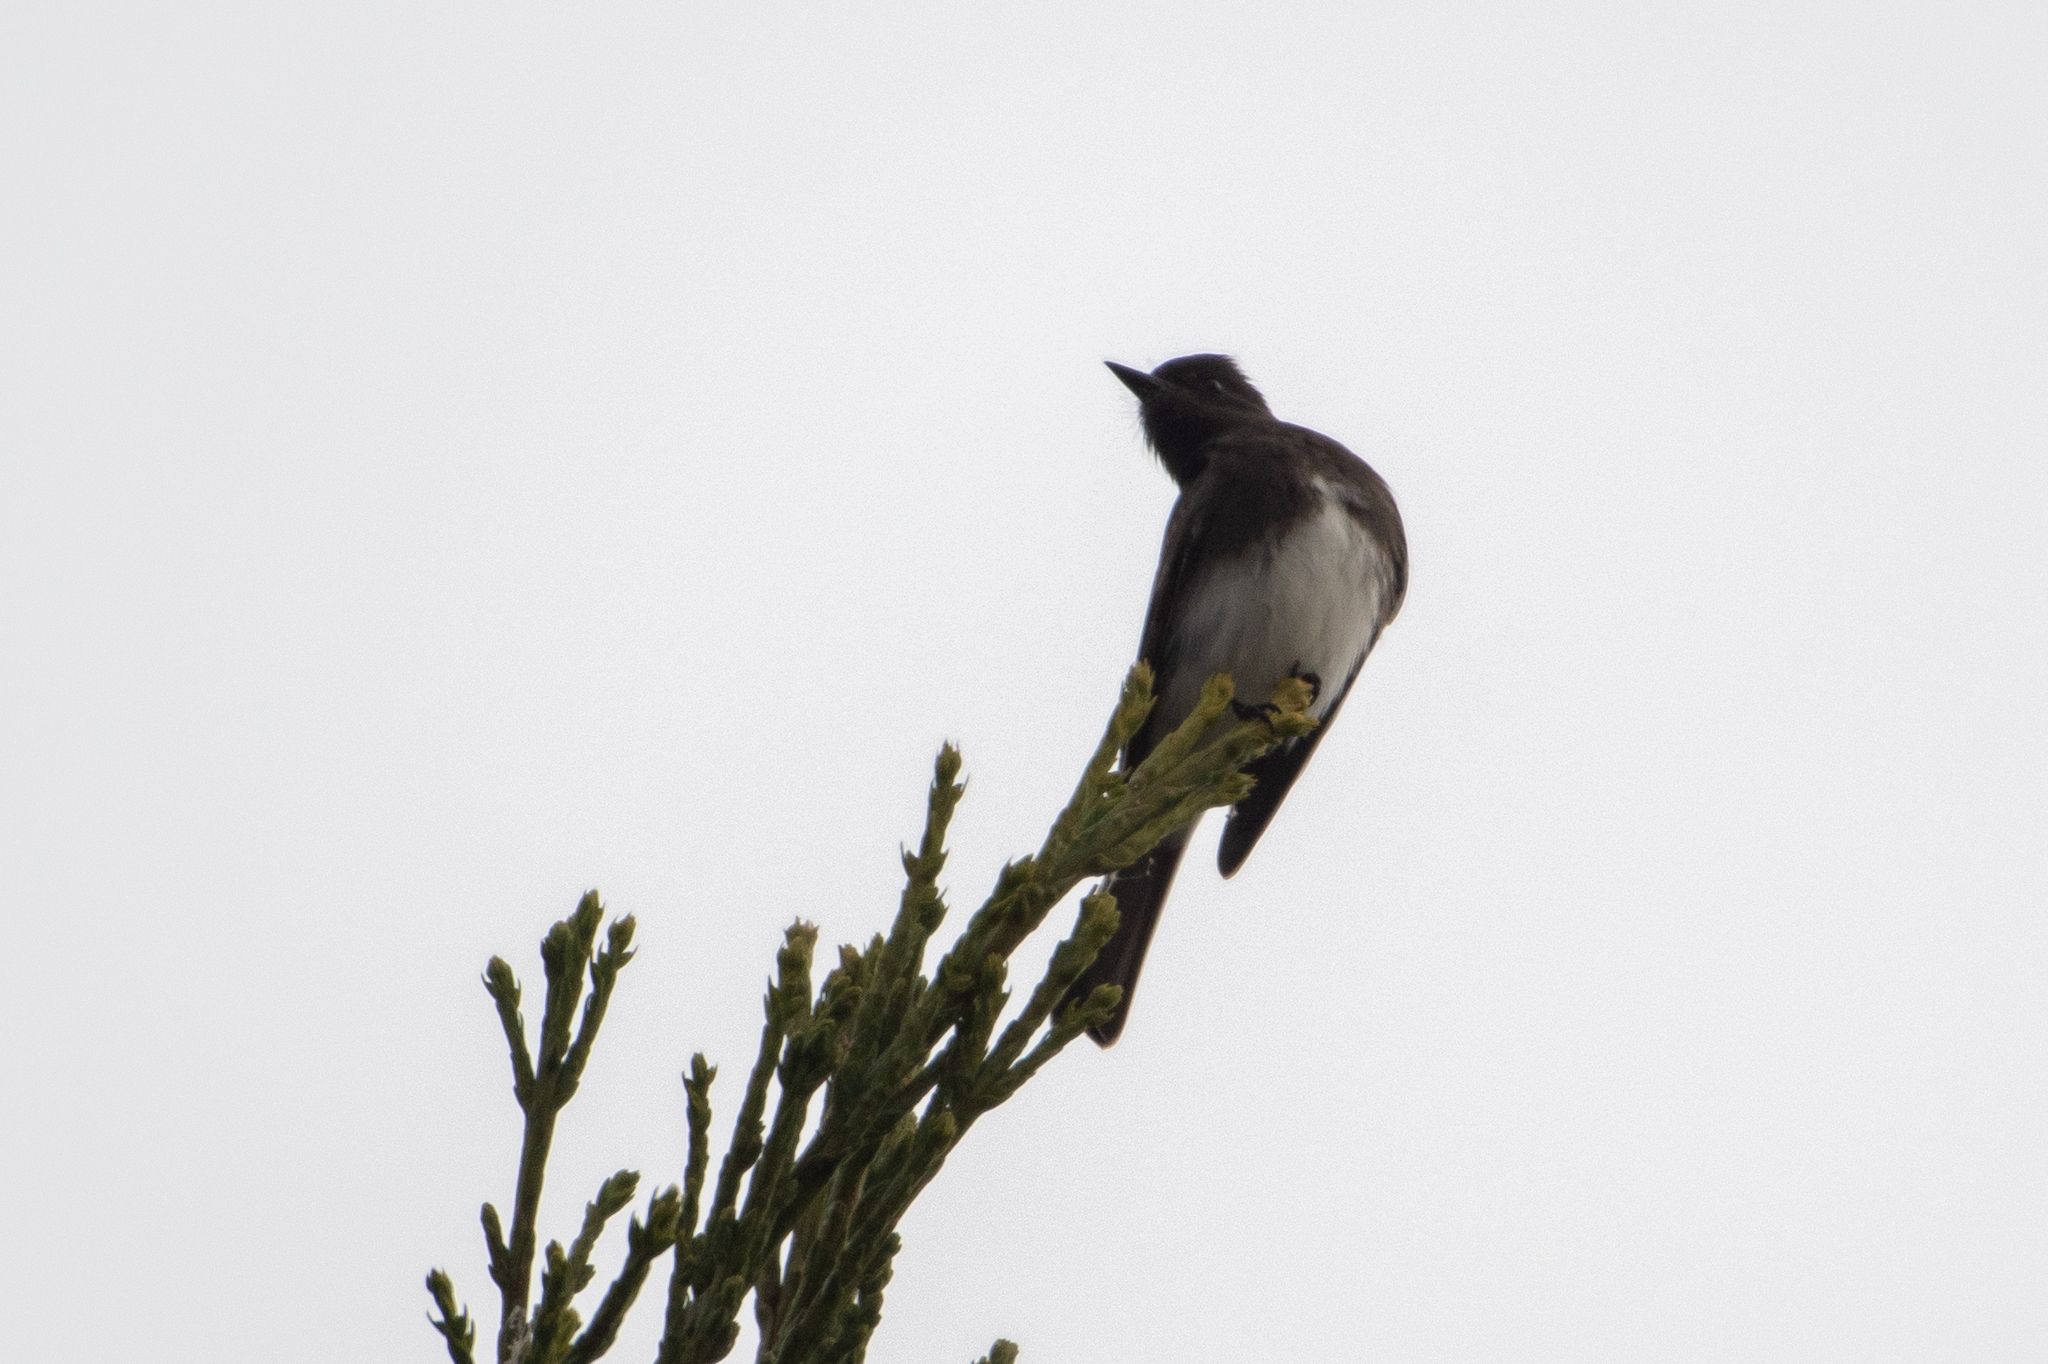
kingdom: Animalia
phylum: Chordata
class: Aves
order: Passeriformes
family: Tyrannidae
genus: Sayornis
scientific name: Sayornis nigricans
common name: Black phoebe
